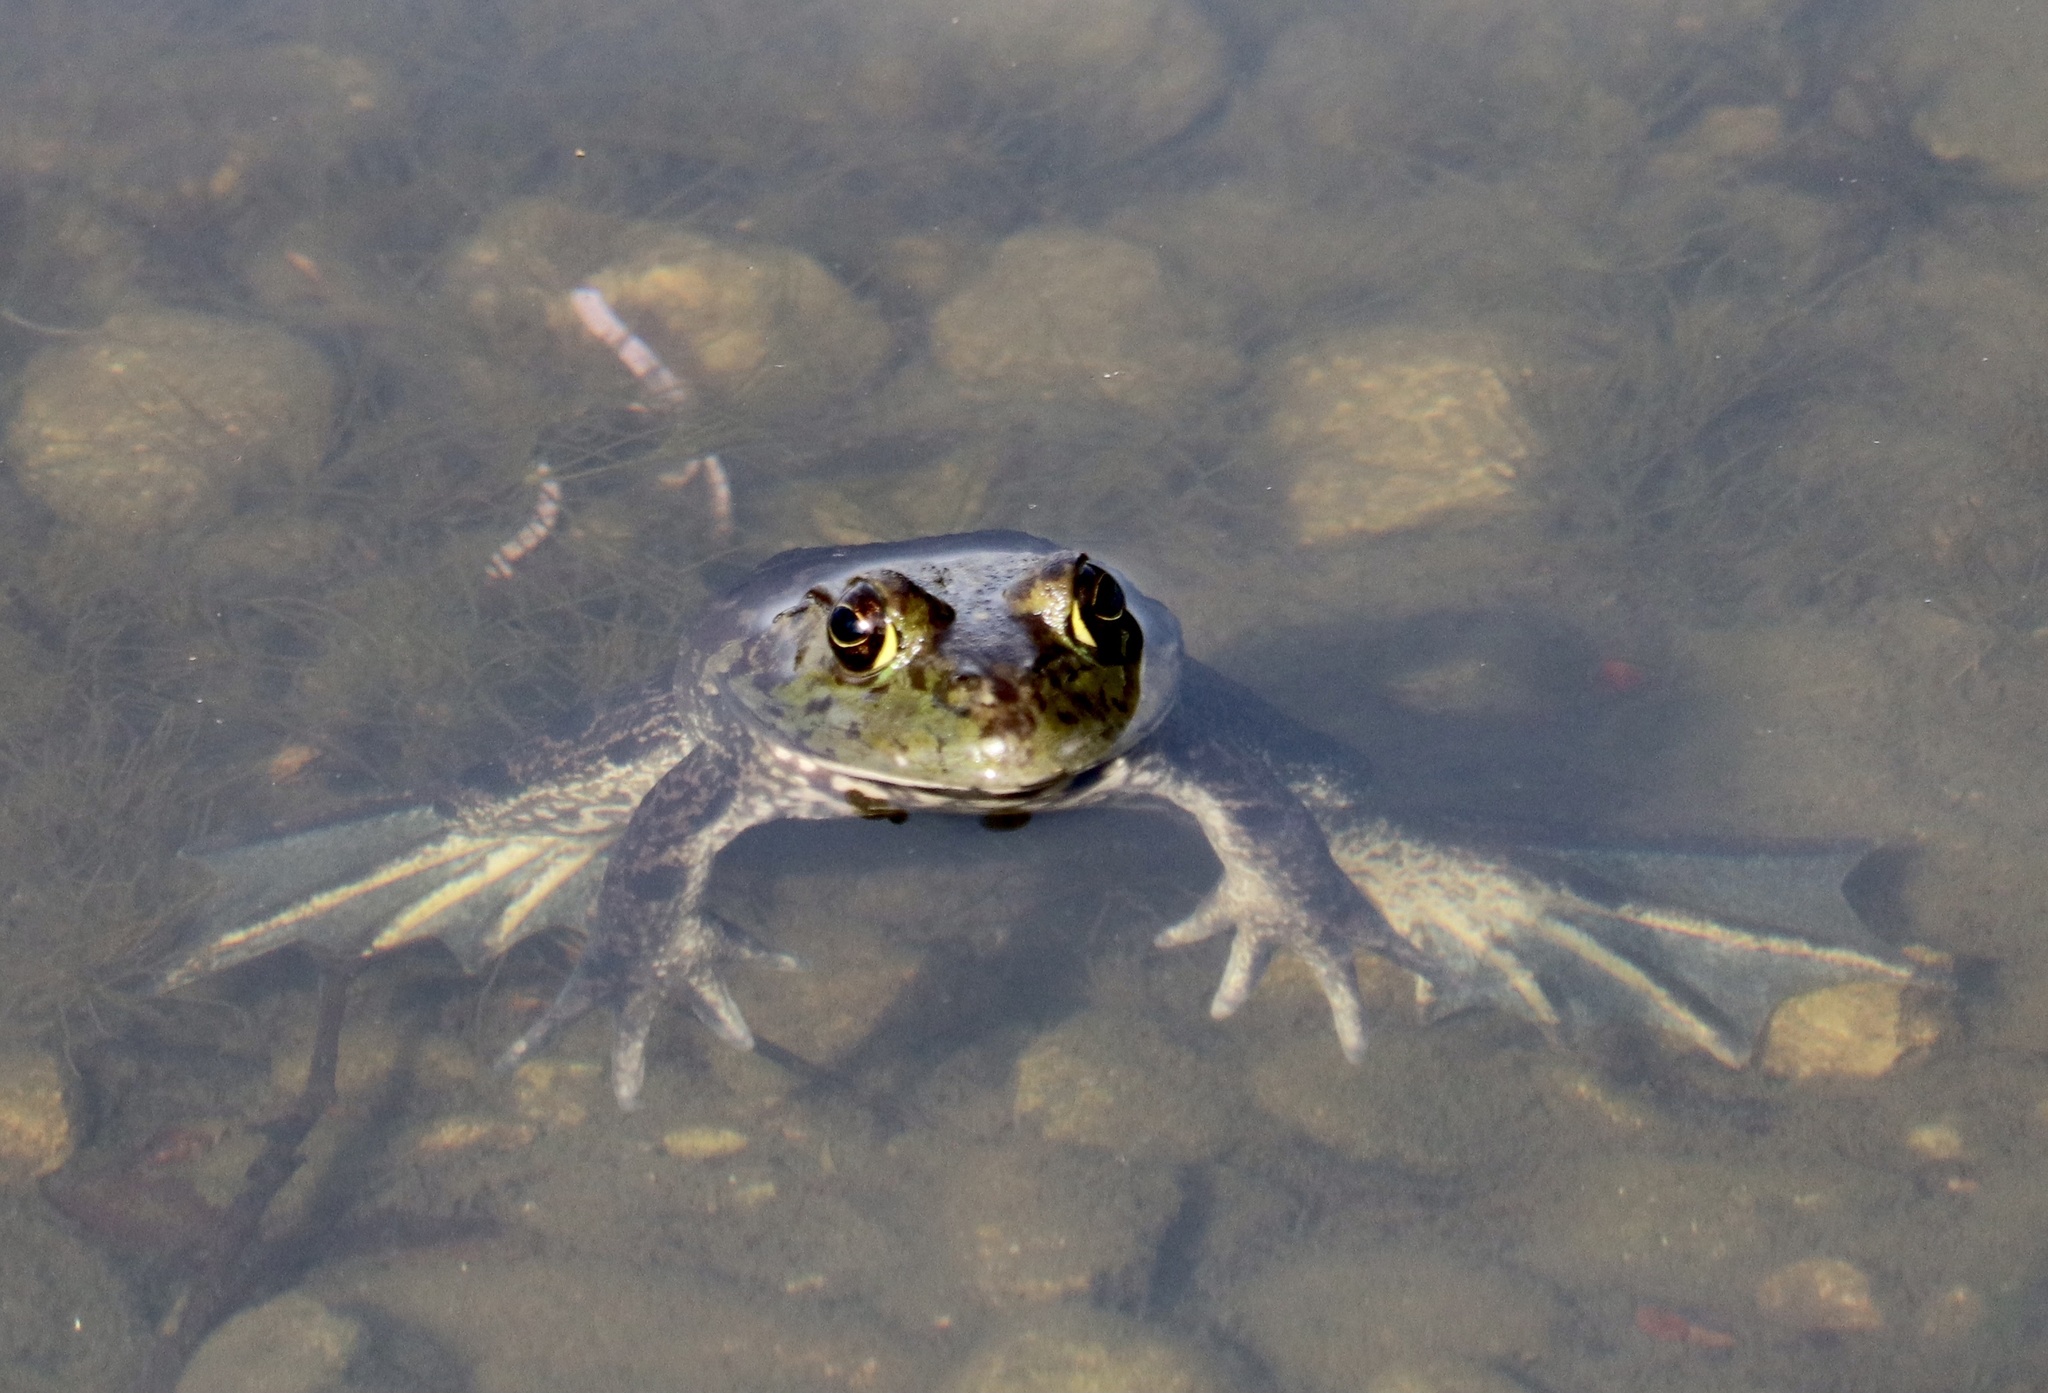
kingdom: Animalia
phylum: Chordata
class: Amphibia
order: Anura
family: Ranidae
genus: Lithobates
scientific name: Lithobates catesbeianus
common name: American bullfrog
